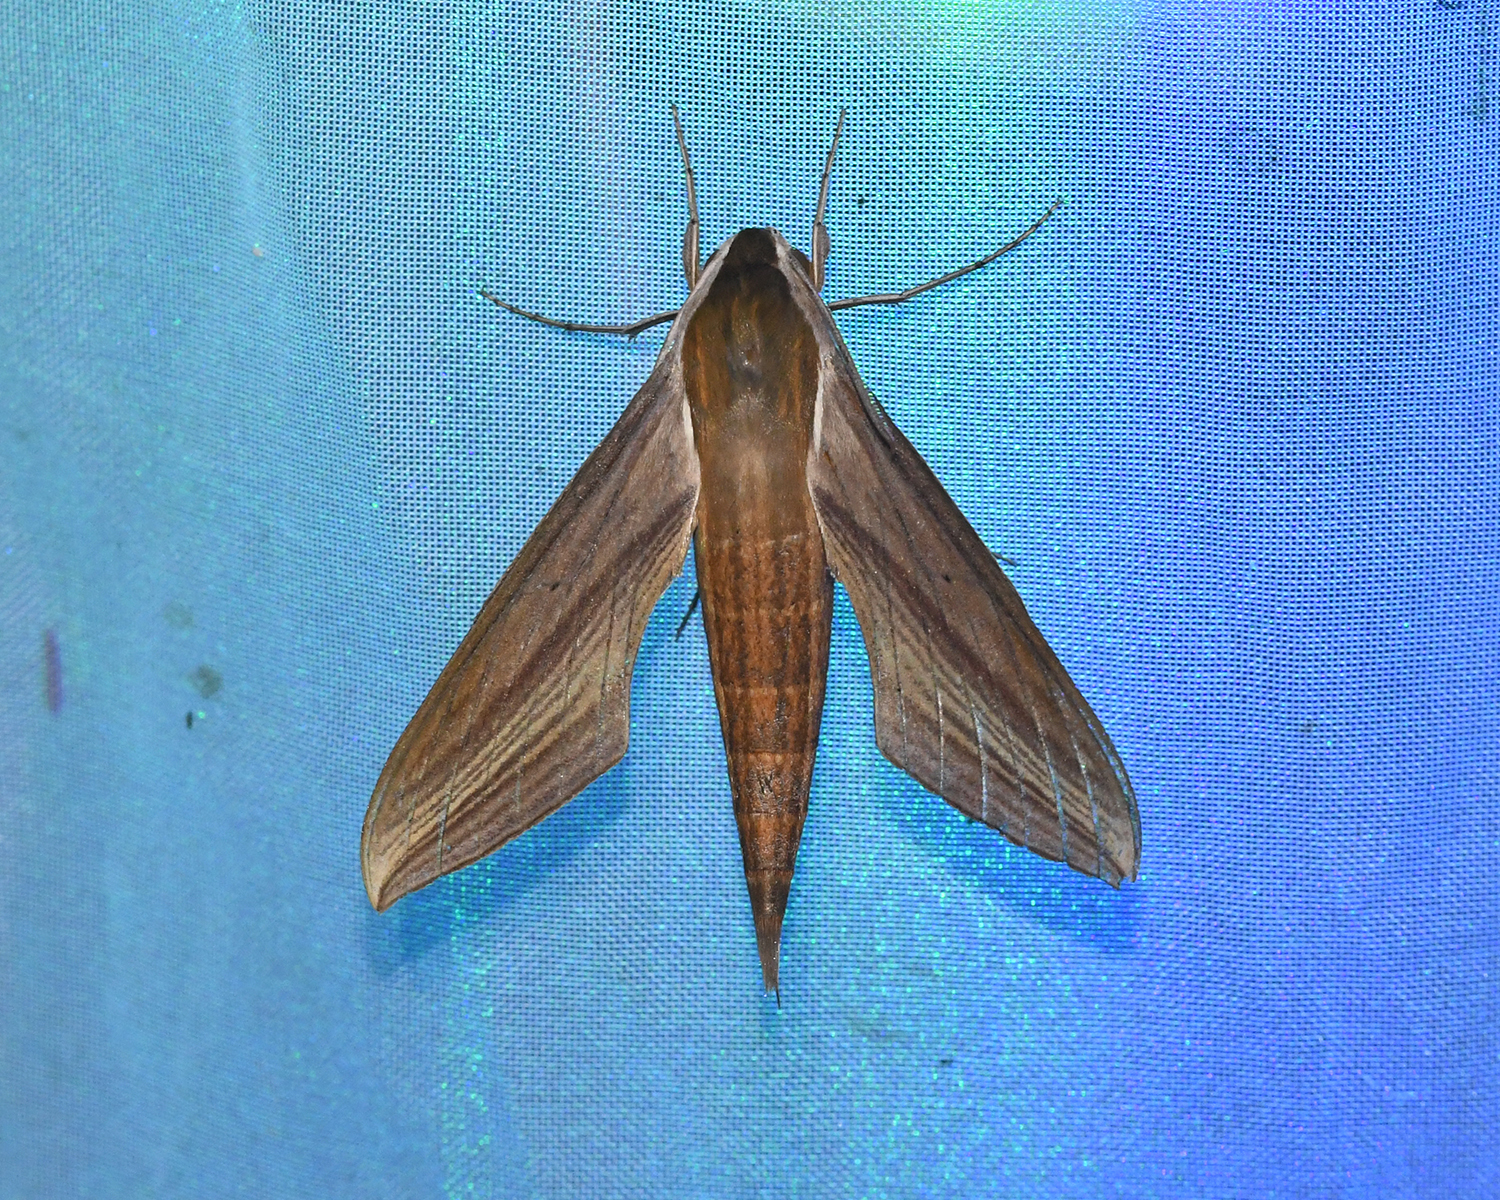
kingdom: Animalia
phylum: Arthropoda
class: Insecta
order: Lepidoptera
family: Sphingidae
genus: Xylophanes
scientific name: Xylophanes tersa
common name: Tersa sphinx
